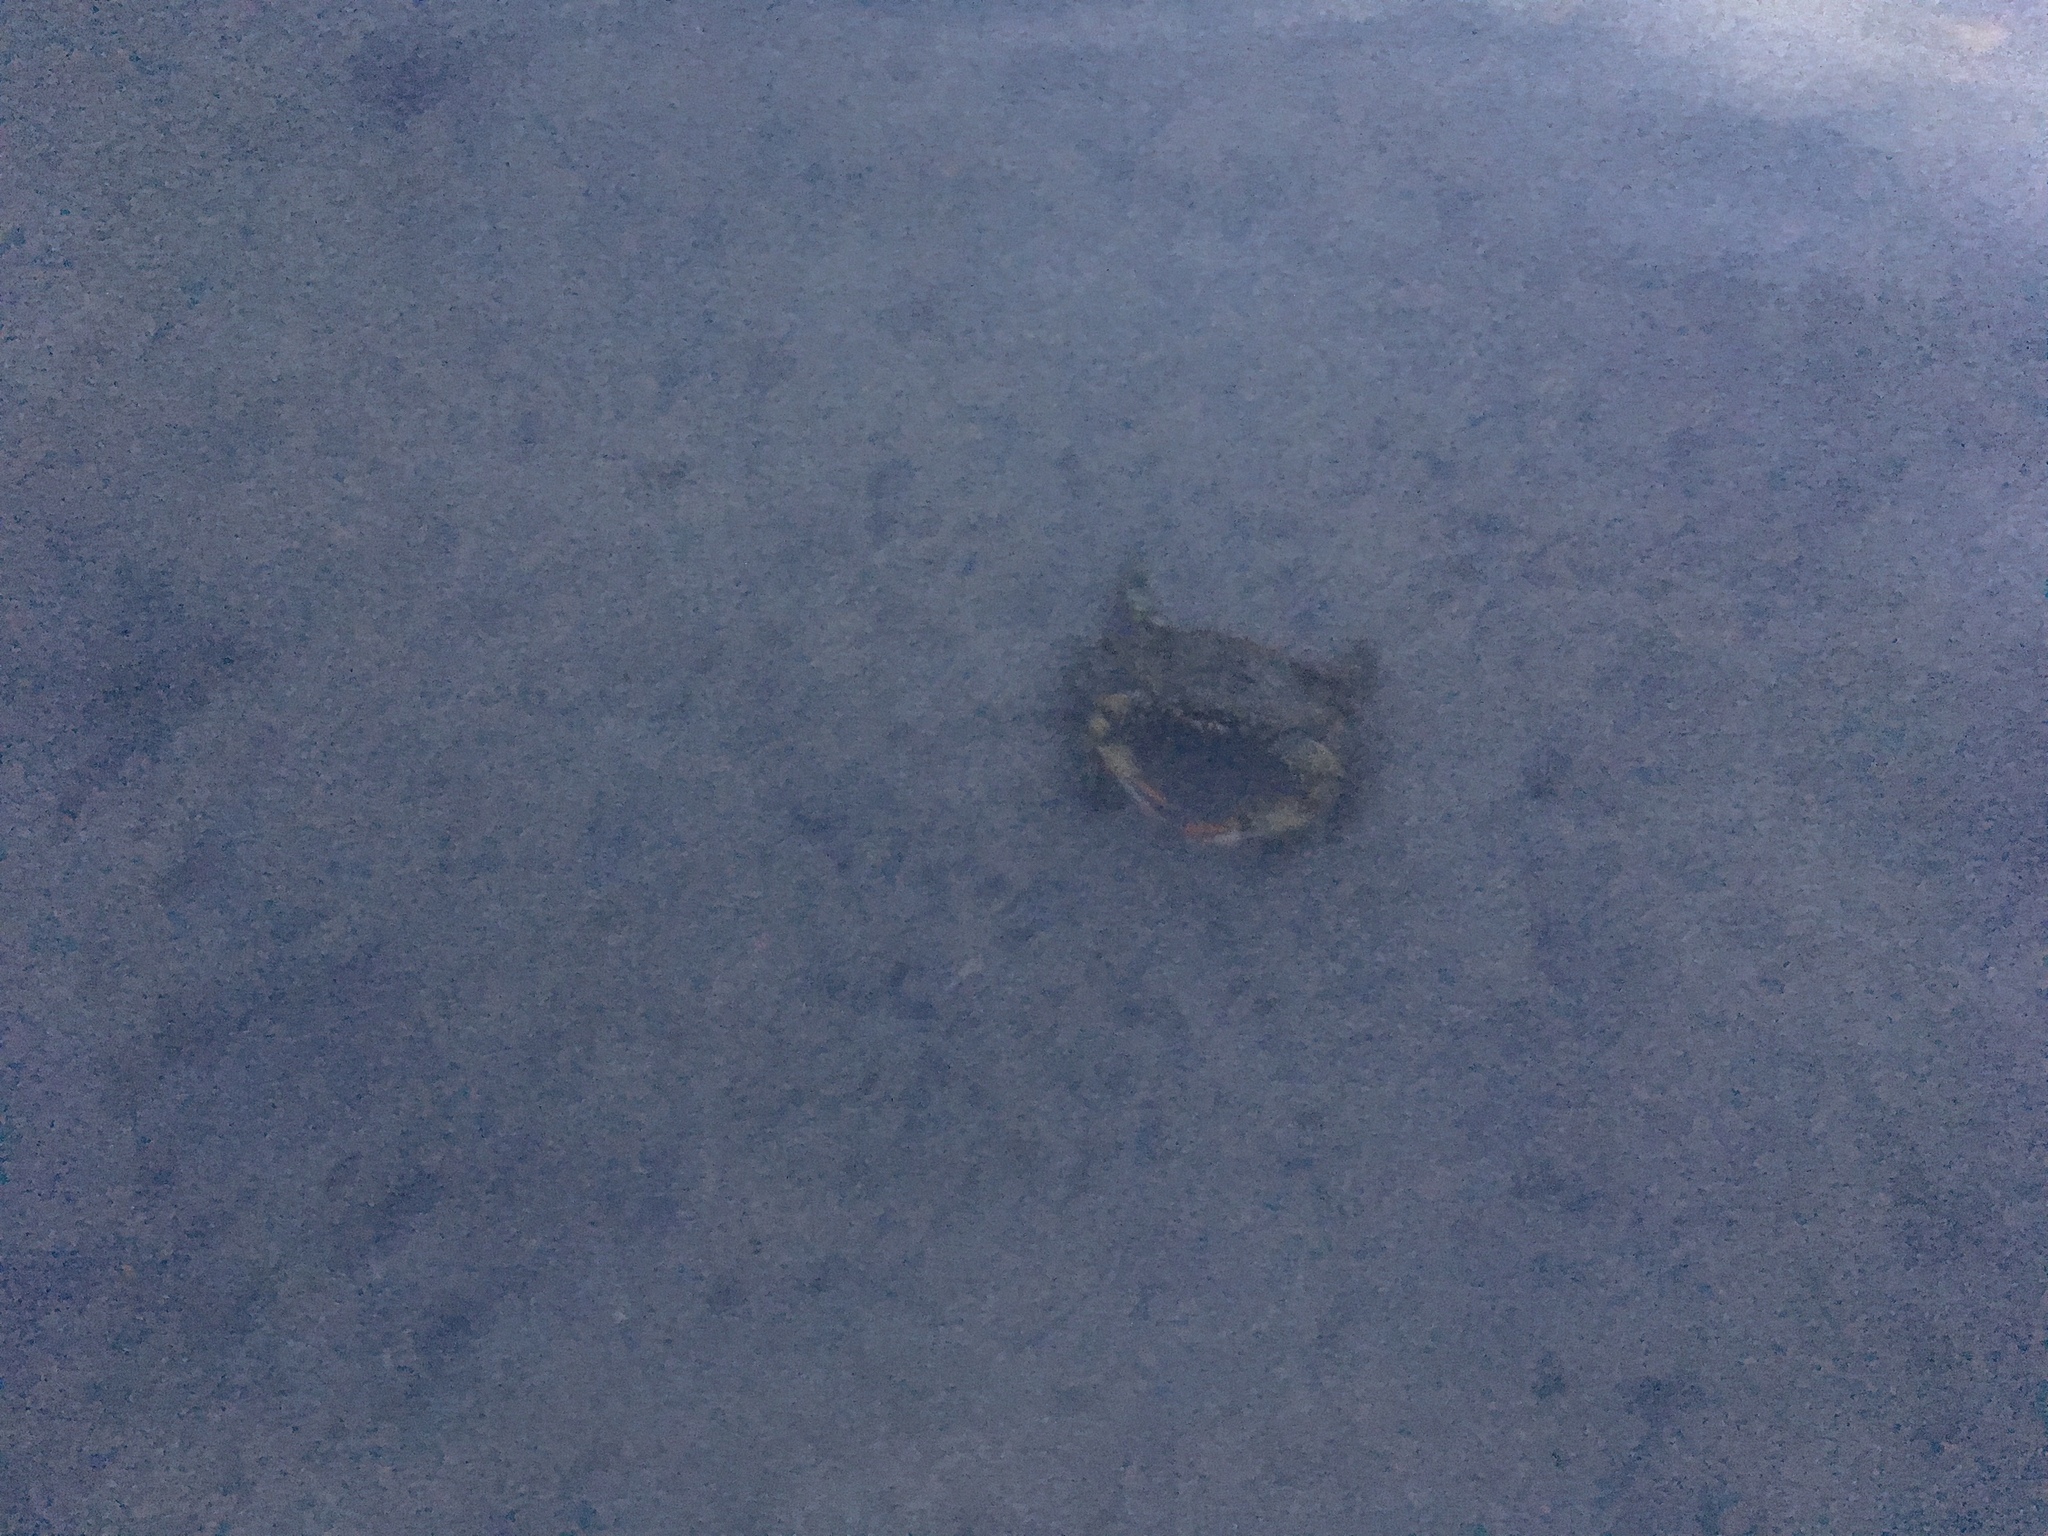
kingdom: Animalia
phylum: Arthropoda
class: Malacostraca
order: Decapoda
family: Portunidae
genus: Callinectes
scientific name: Callinectes sapidus
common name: Blue crab
